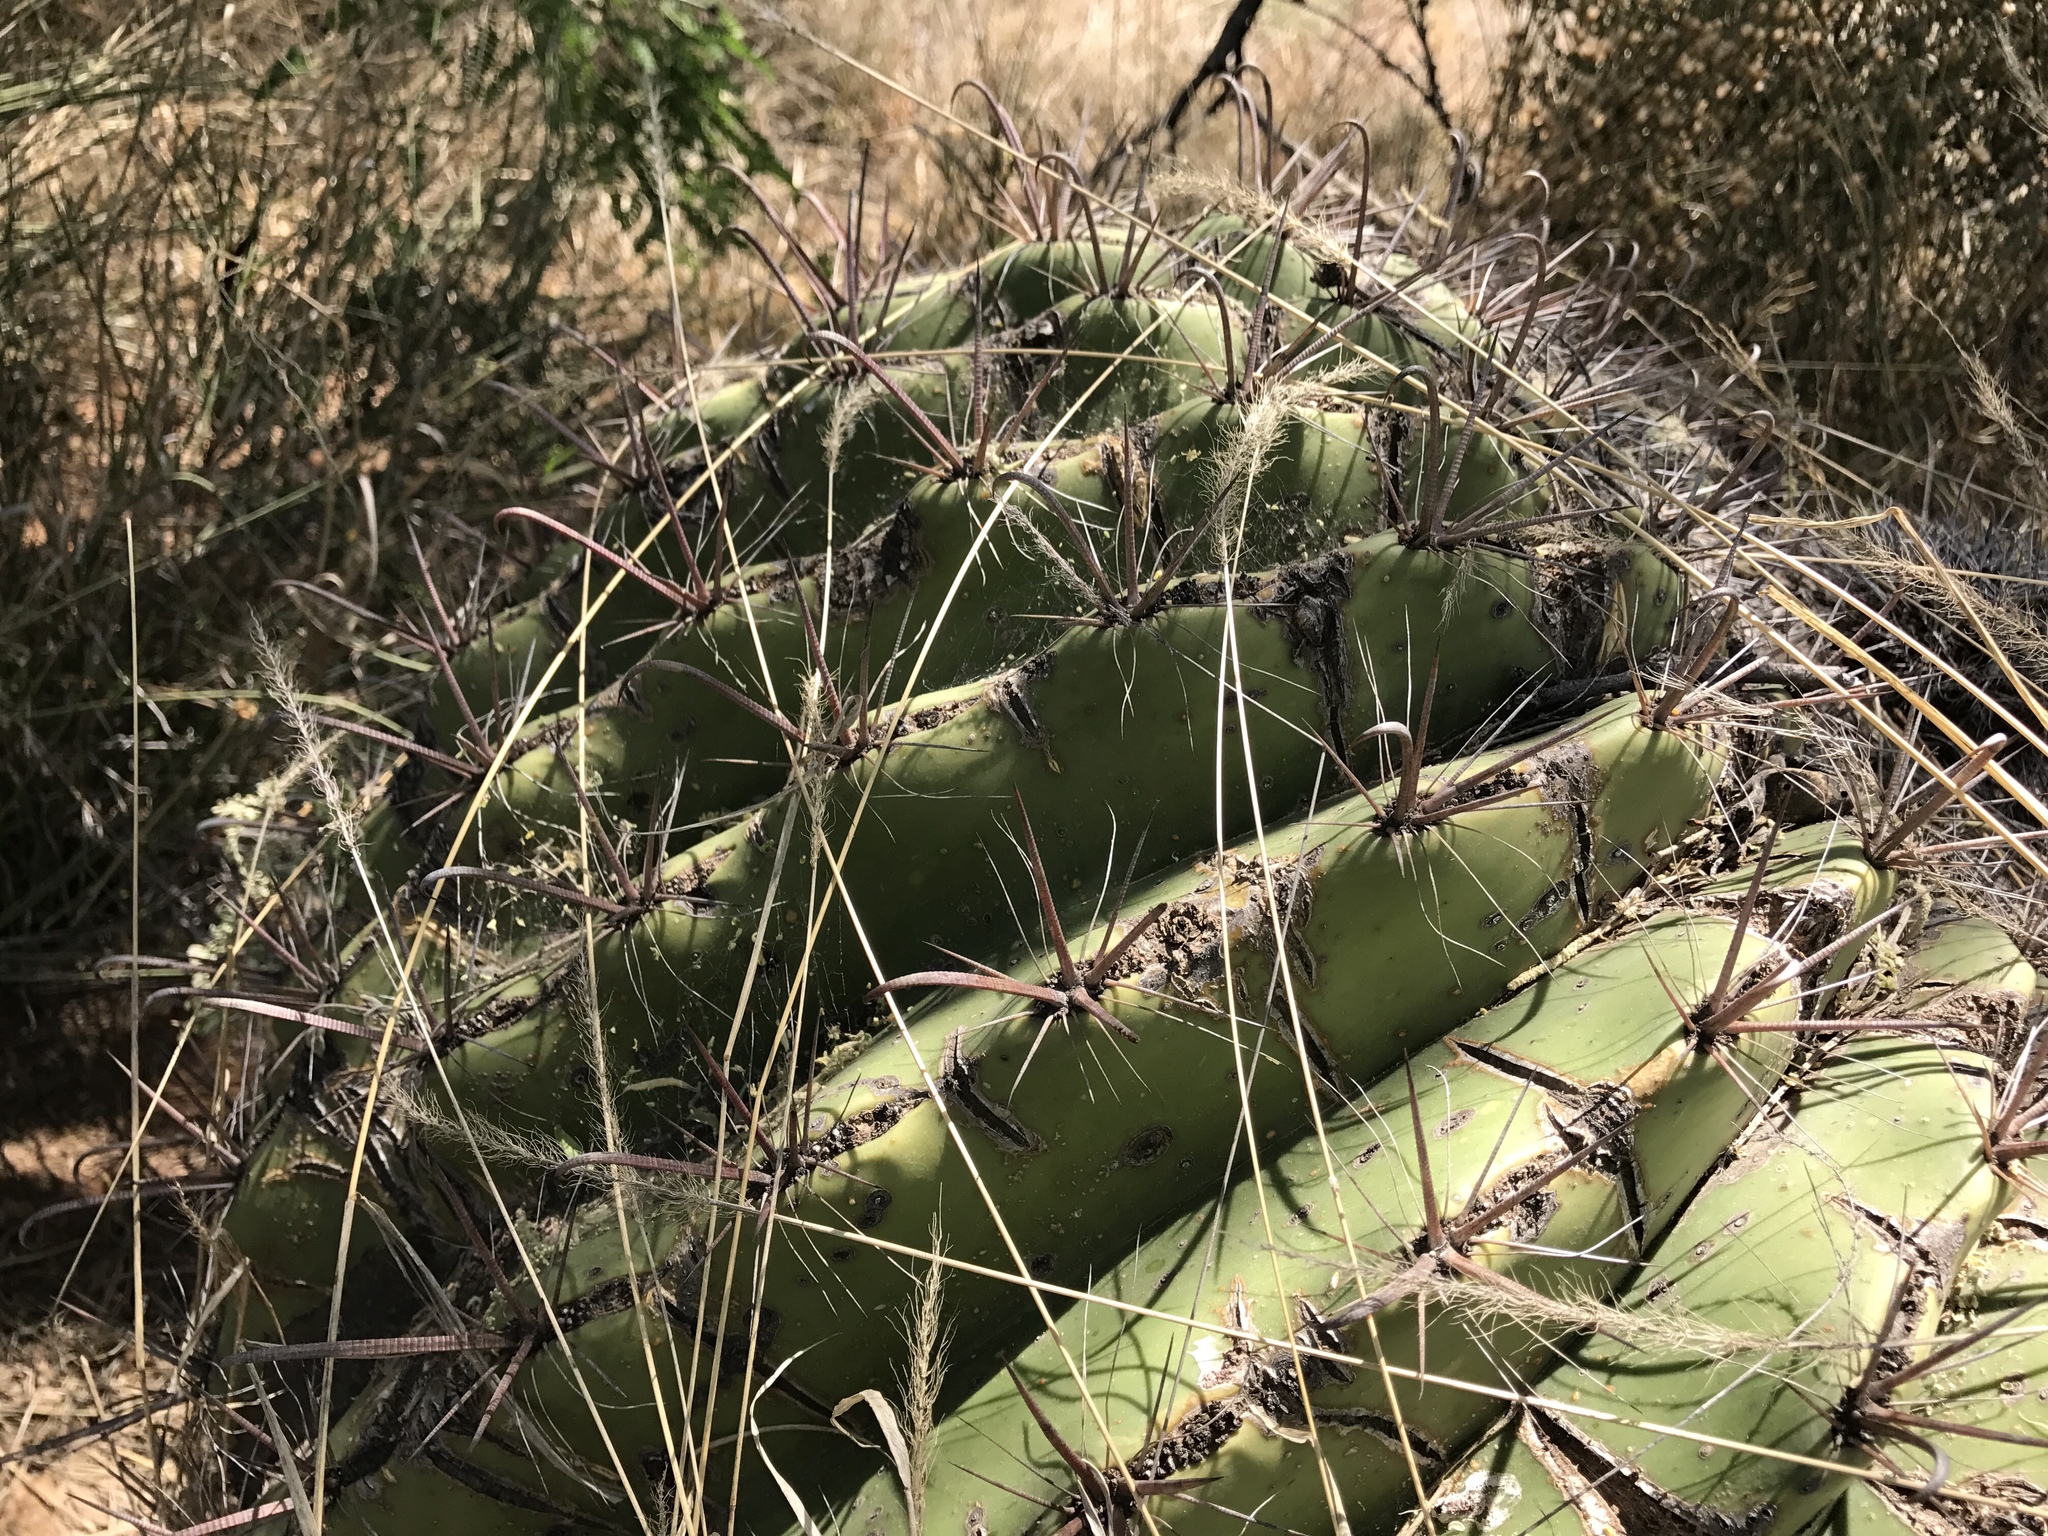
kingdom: Plantae
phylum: Tracheophyta
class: Magnoliopsida
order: Caryophyllales
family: Cactaceae
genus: Ferocactus
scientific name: Ferocactus wislizeni
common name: Candy barrel cactus
